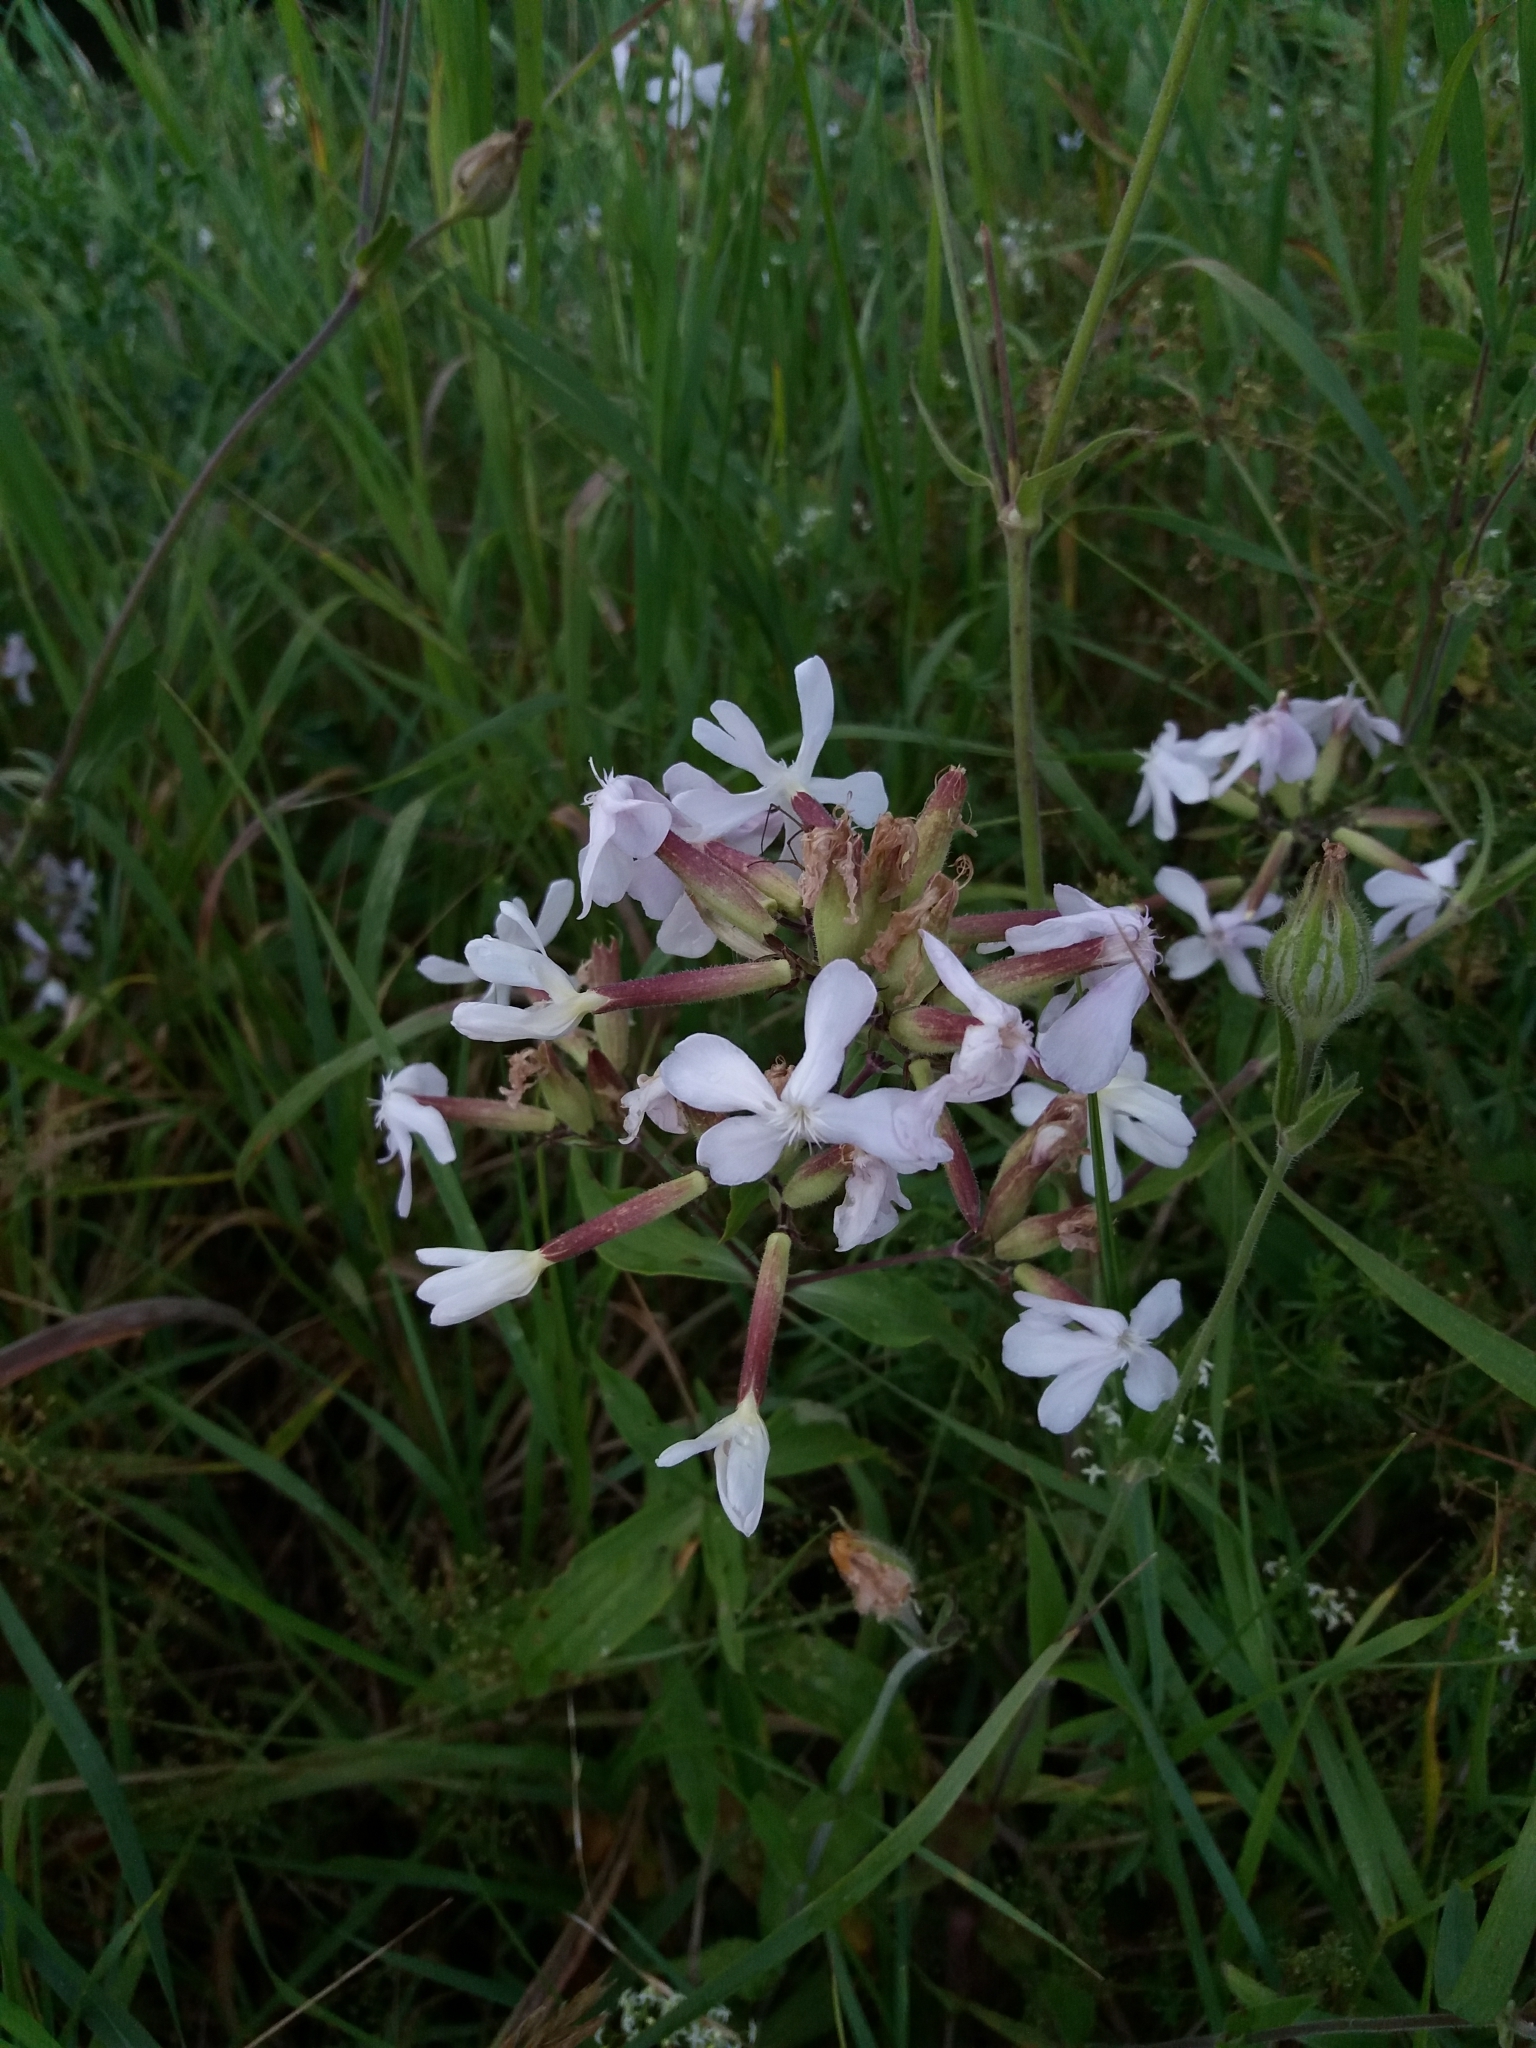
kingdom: Plantae
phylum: Tracheophyta
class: Magnoliopsida
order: Caryophyllales
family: Caryophyllaceae
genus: Saponaria
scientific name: Saponaria officinalis
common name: Soapwort
